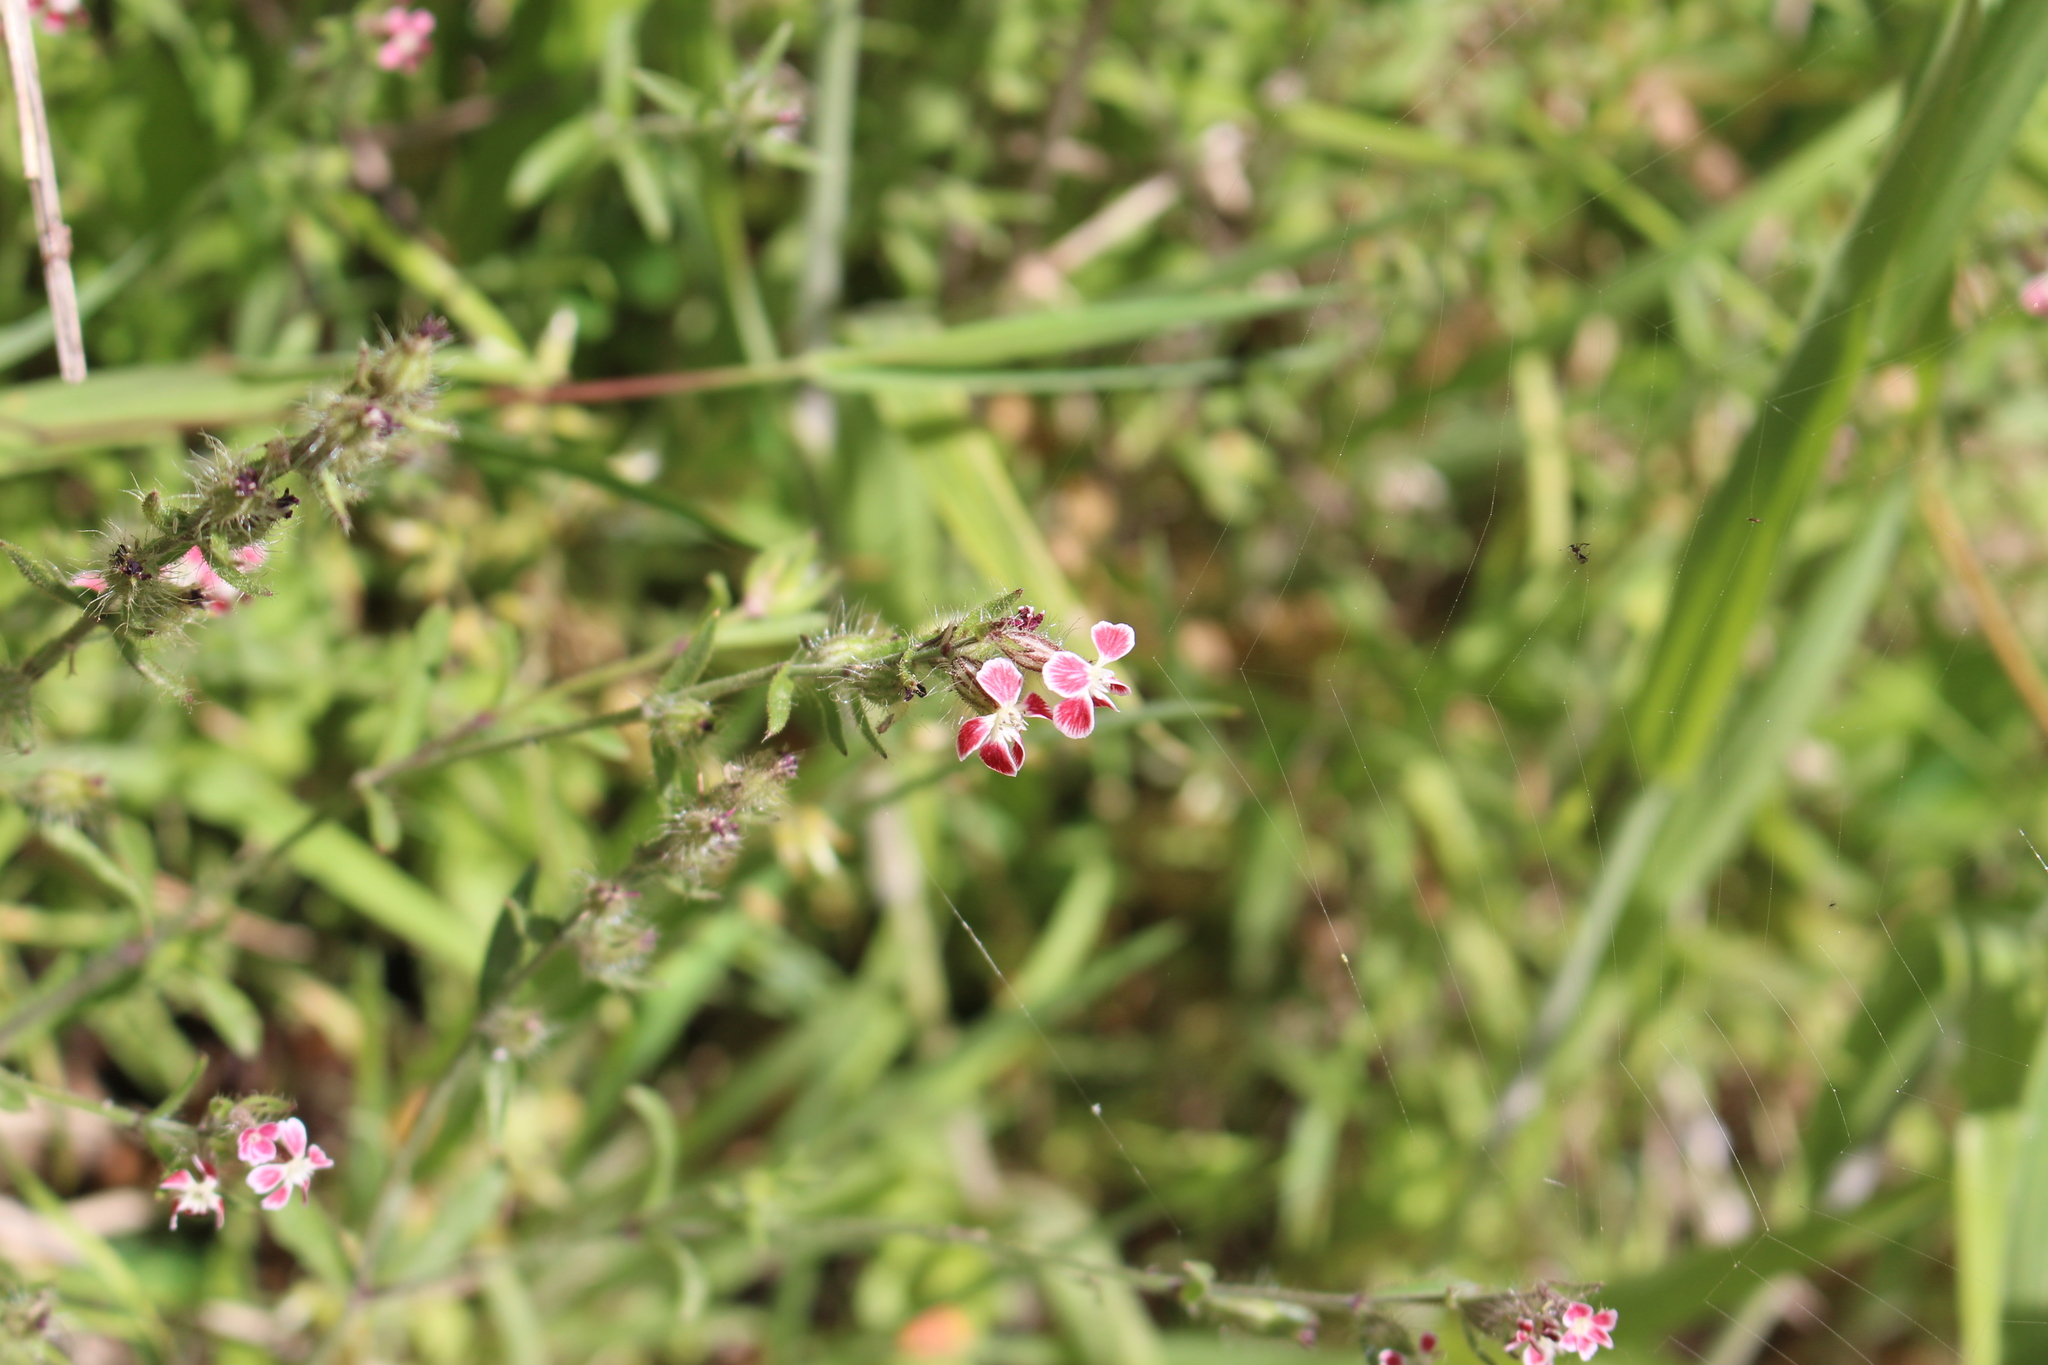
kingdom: Plantae
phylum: Tracheophyta
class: Magnoliopsida
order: Caryophyllales
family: Caryophyllaceae
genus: Silene
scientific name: Silene gallica
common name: Small-flowered catchfly
